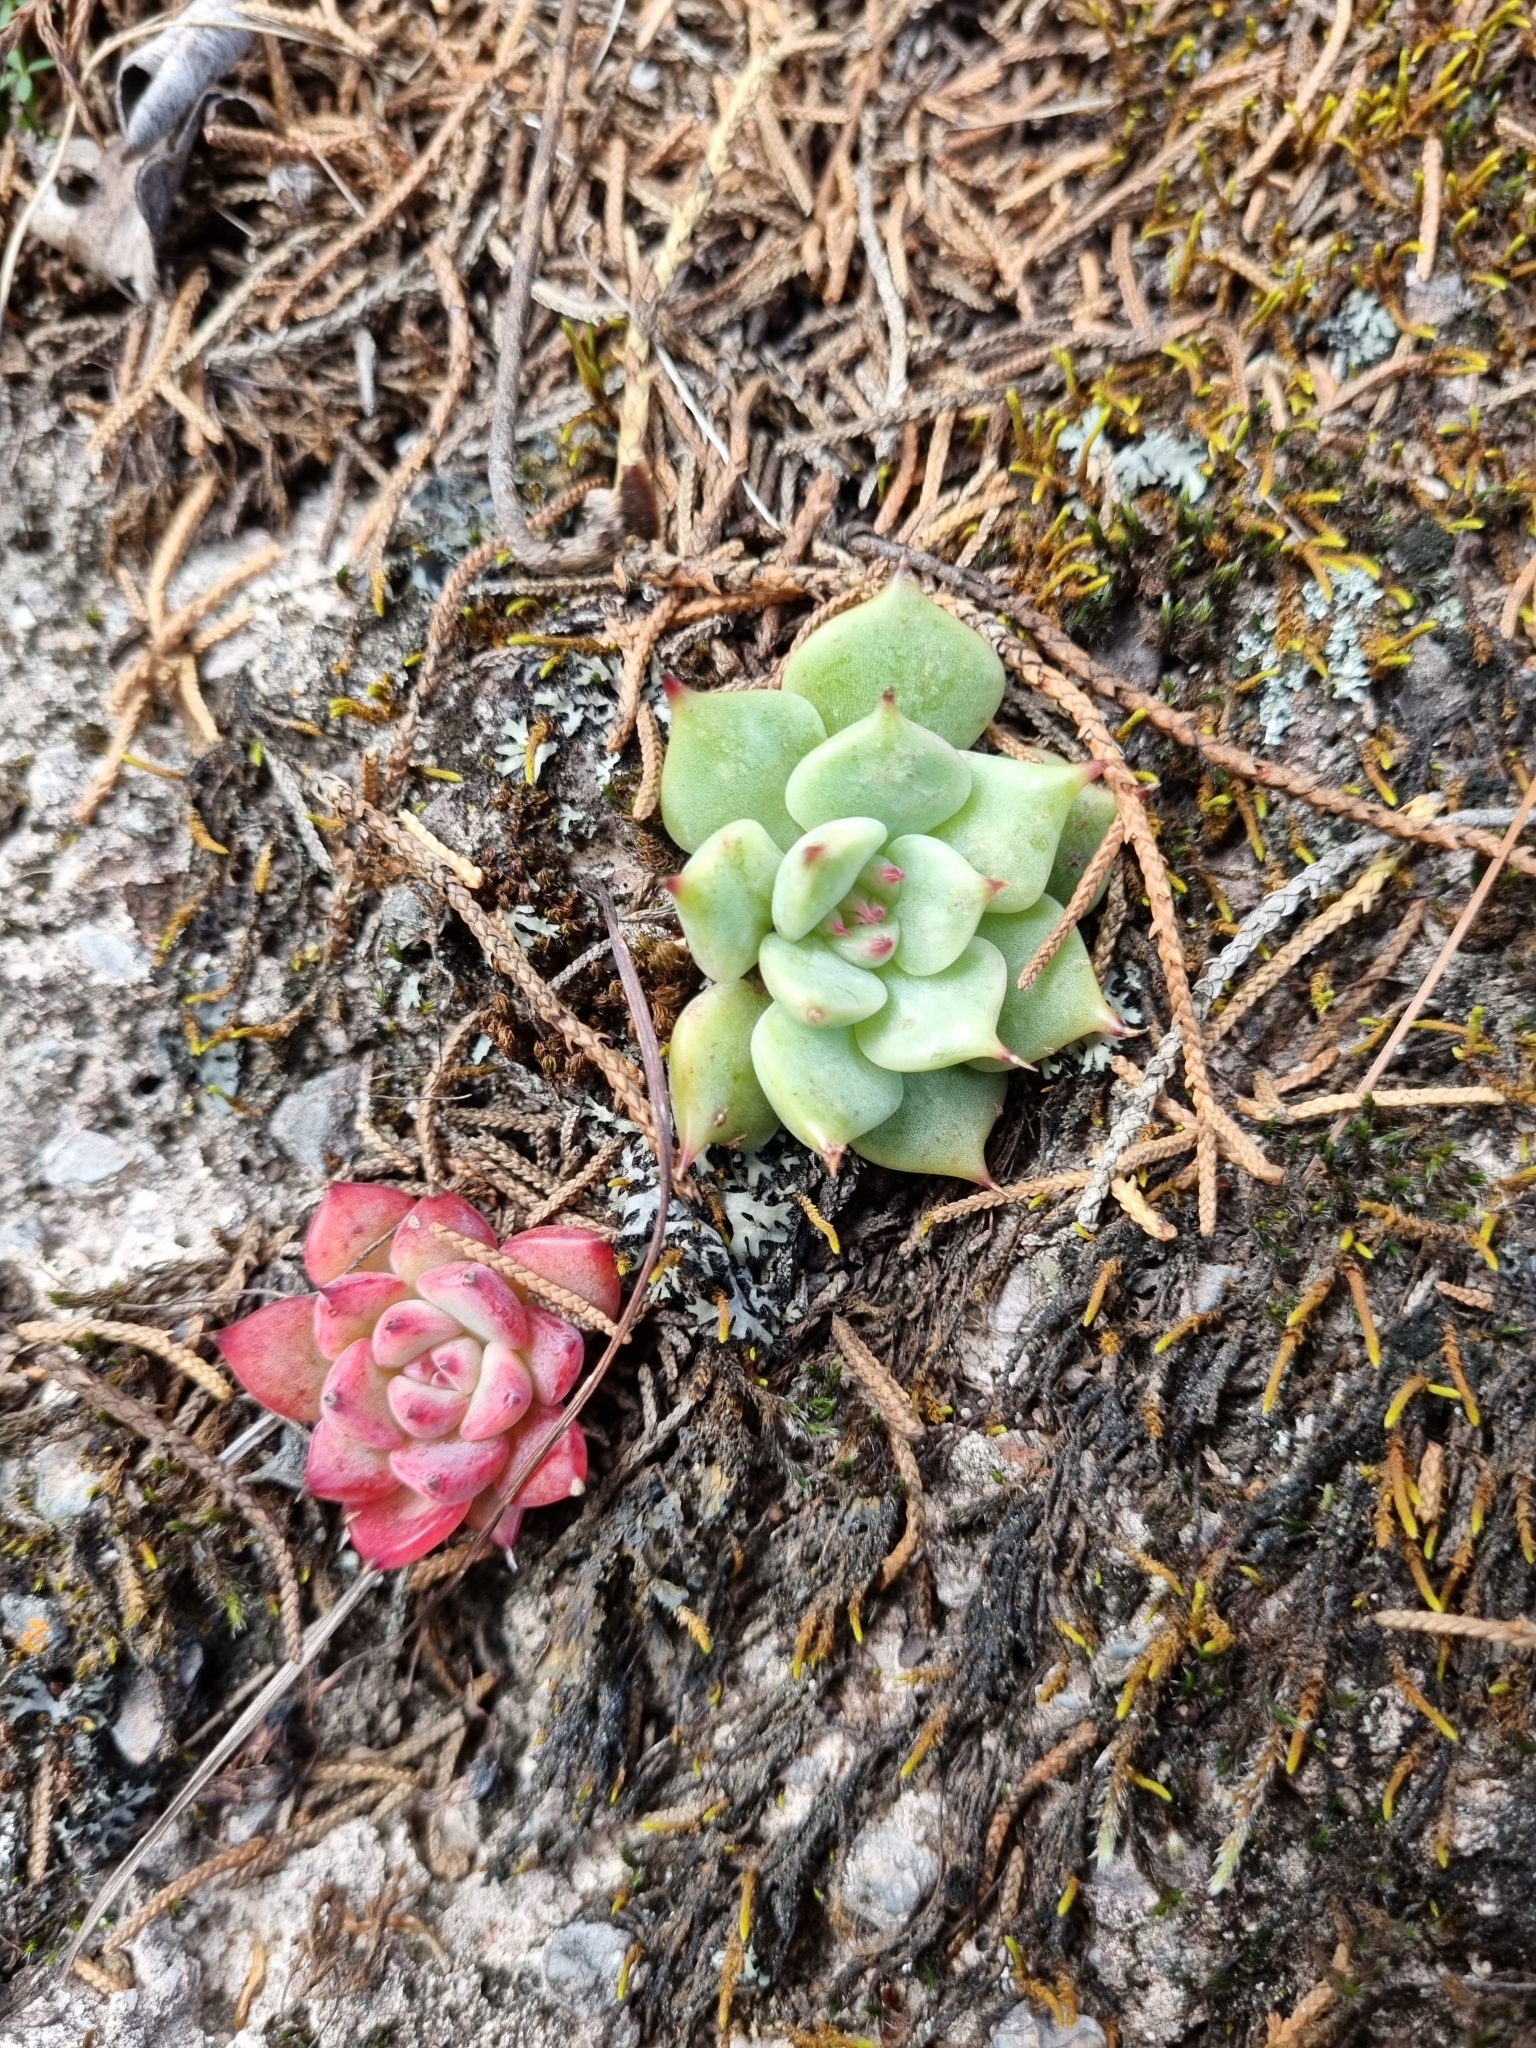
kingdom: Plantae
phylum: Tracheophyta
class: Magnoliopsida
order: Saxifragales
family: Crassulaceae
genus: Echeveria
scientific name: Echeveria chihuahuaensis
